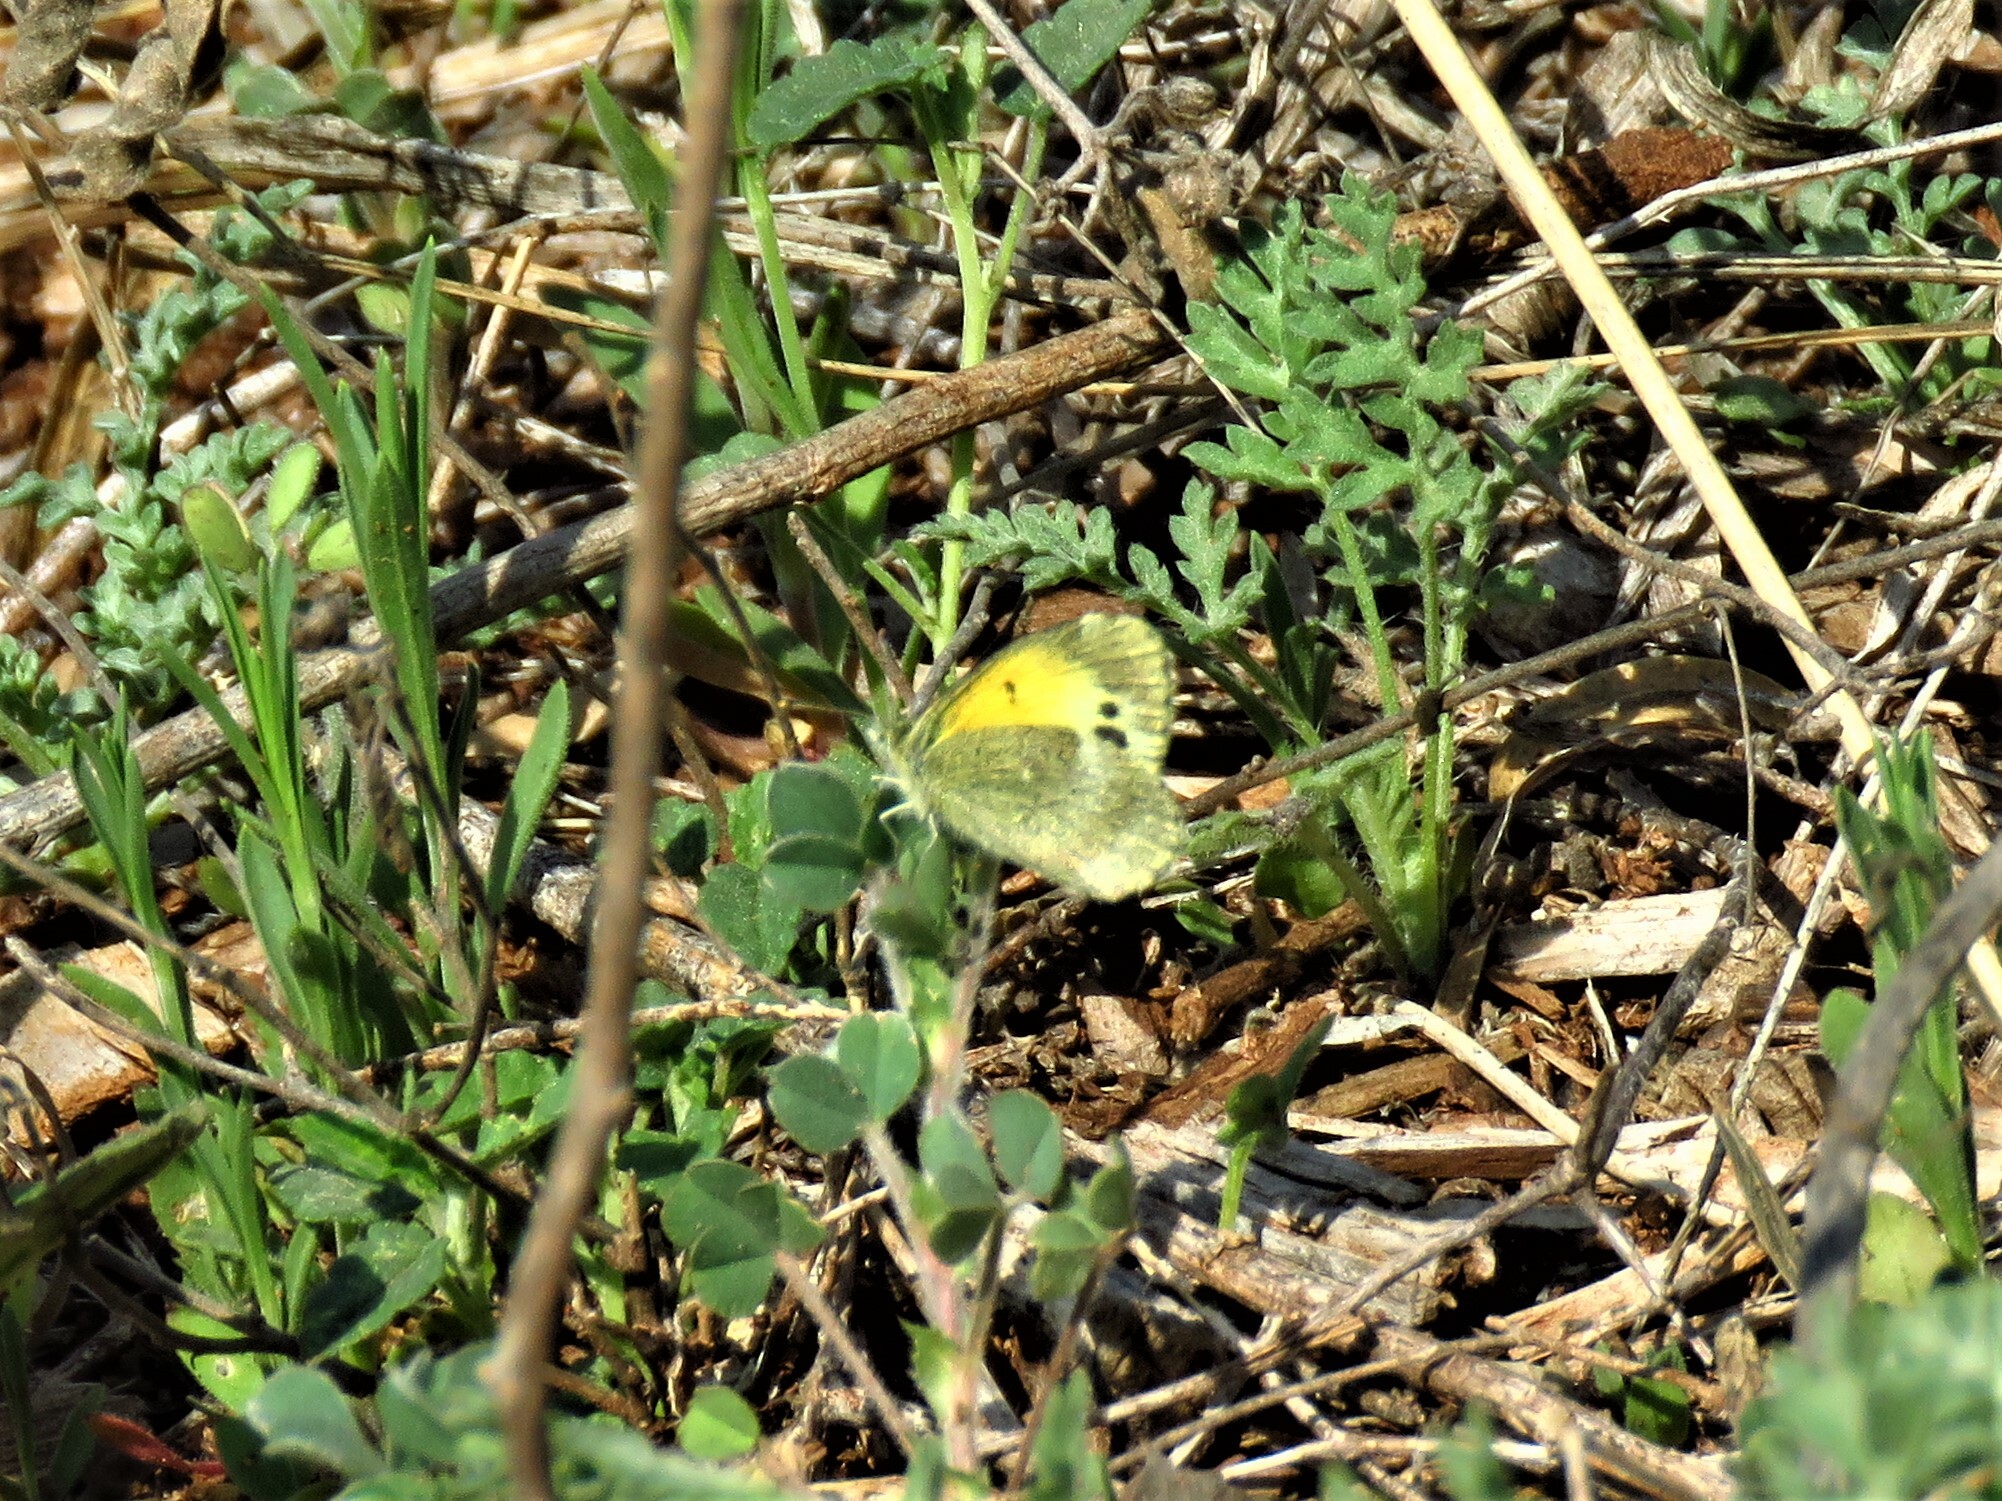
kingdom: Animalia
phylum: Arthropoda
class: Insecta
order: Lepidoptera
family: Pieridae
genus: Nathalis
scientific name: Nathalis iole
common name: Dainty sulphur
